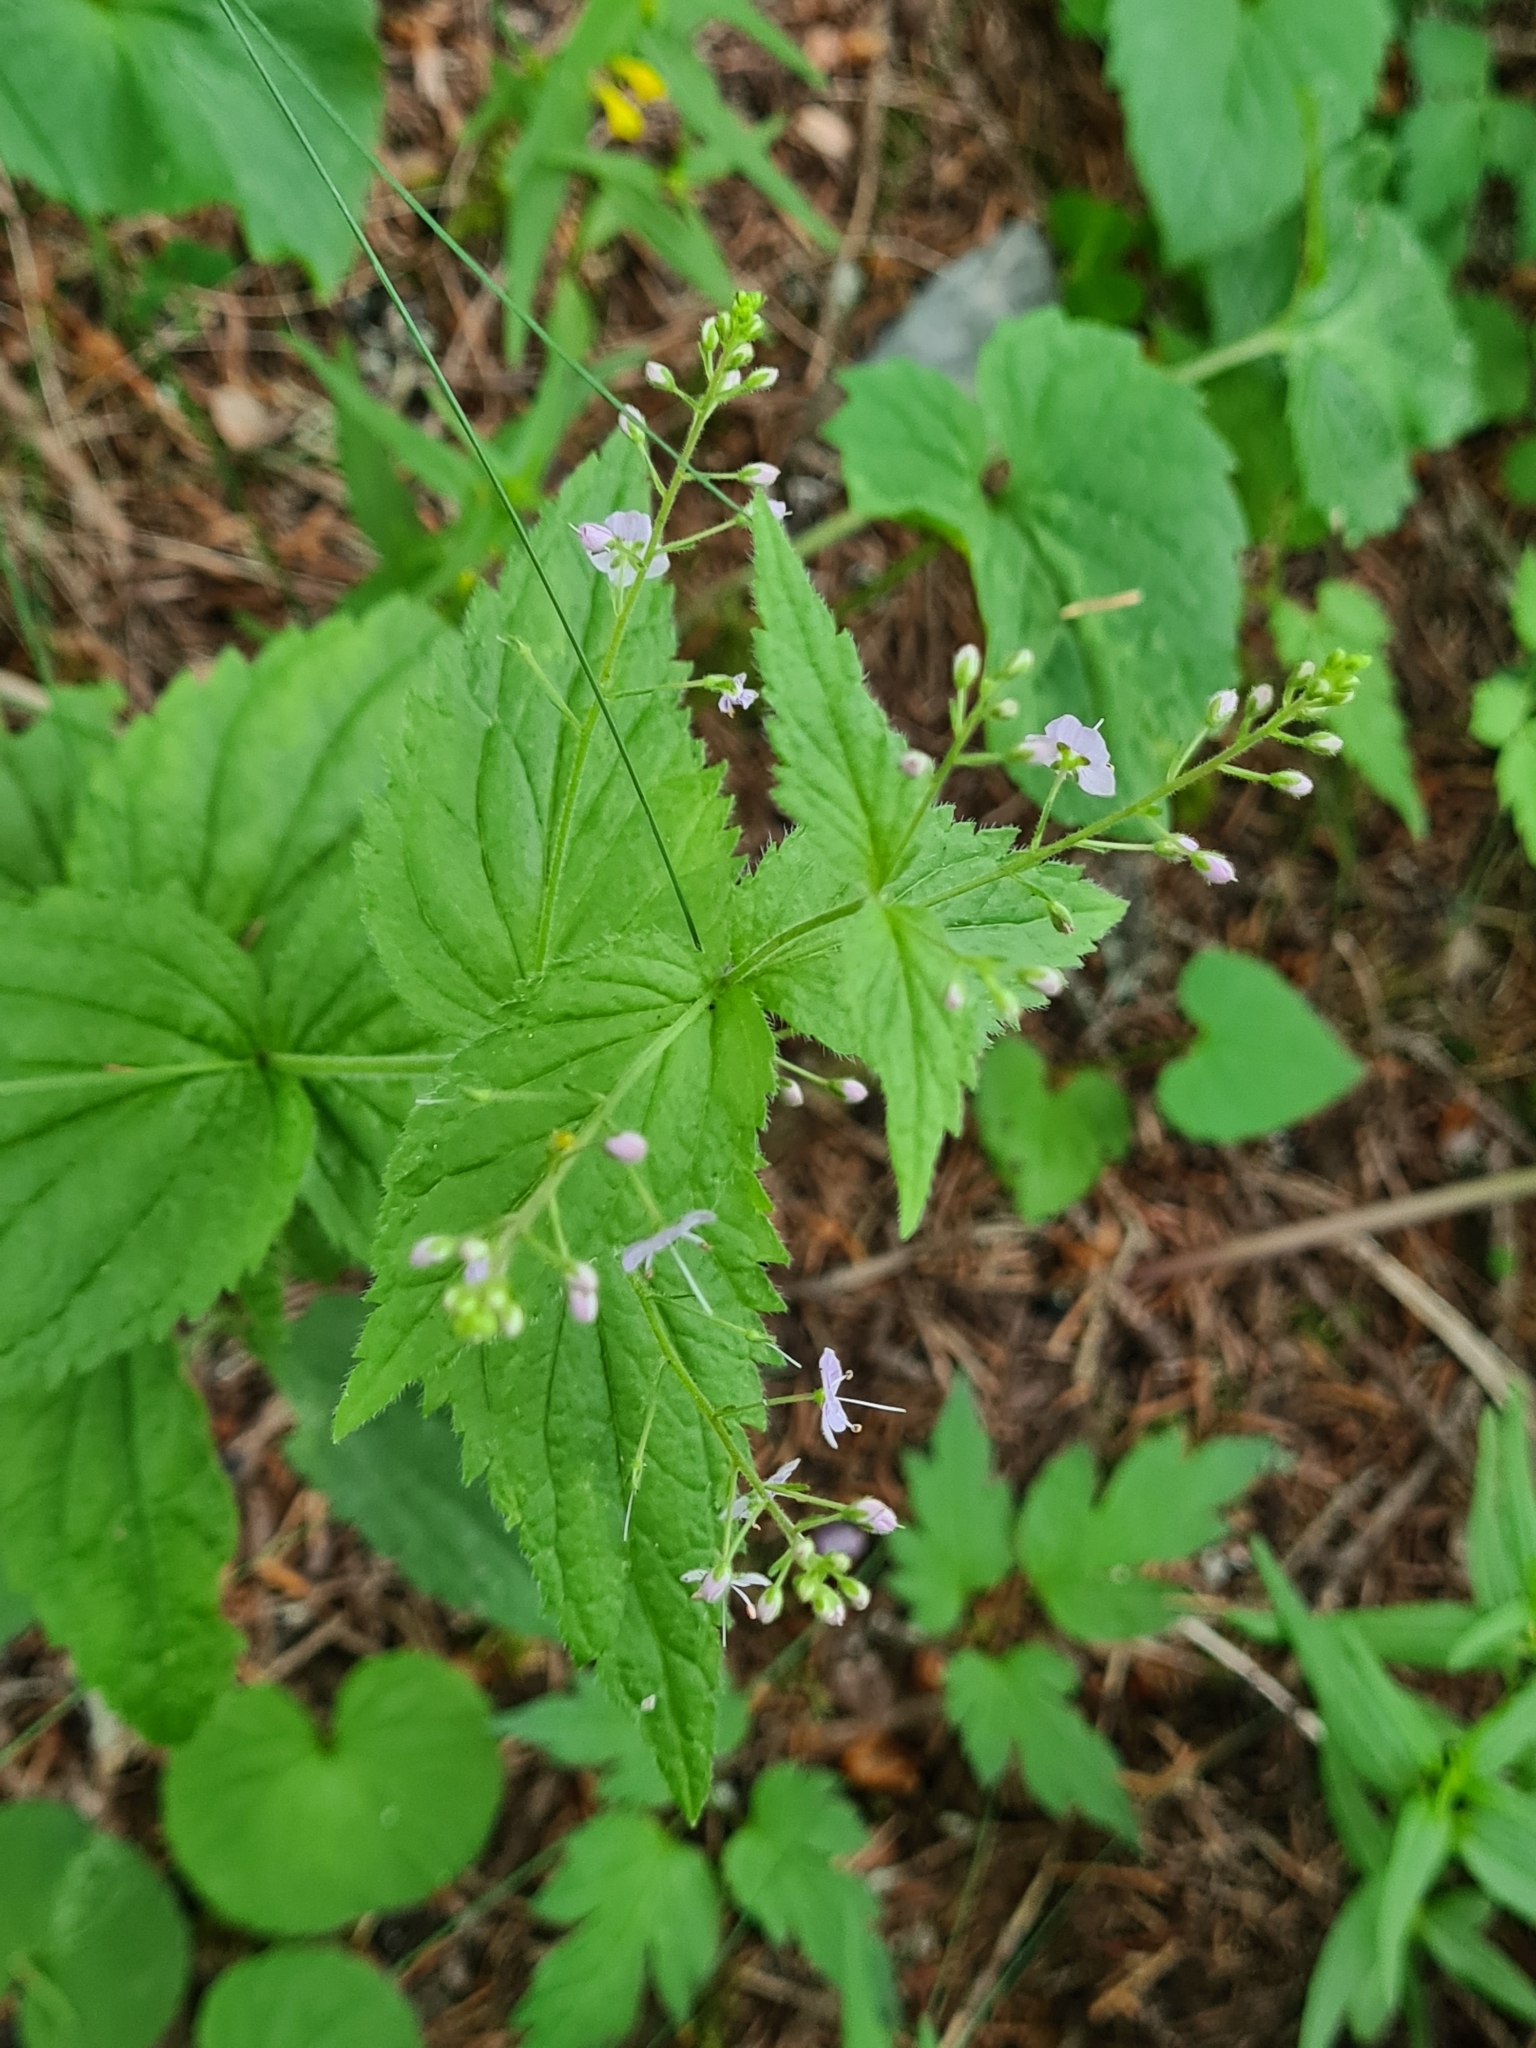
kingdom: Plantae
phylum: Tracheophyta
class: Magnoliopsida
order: Lamiales
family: Plantaginaceae
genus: Veronica
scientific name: Veronica urticifolia
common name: Nettle-leaf speedwell
